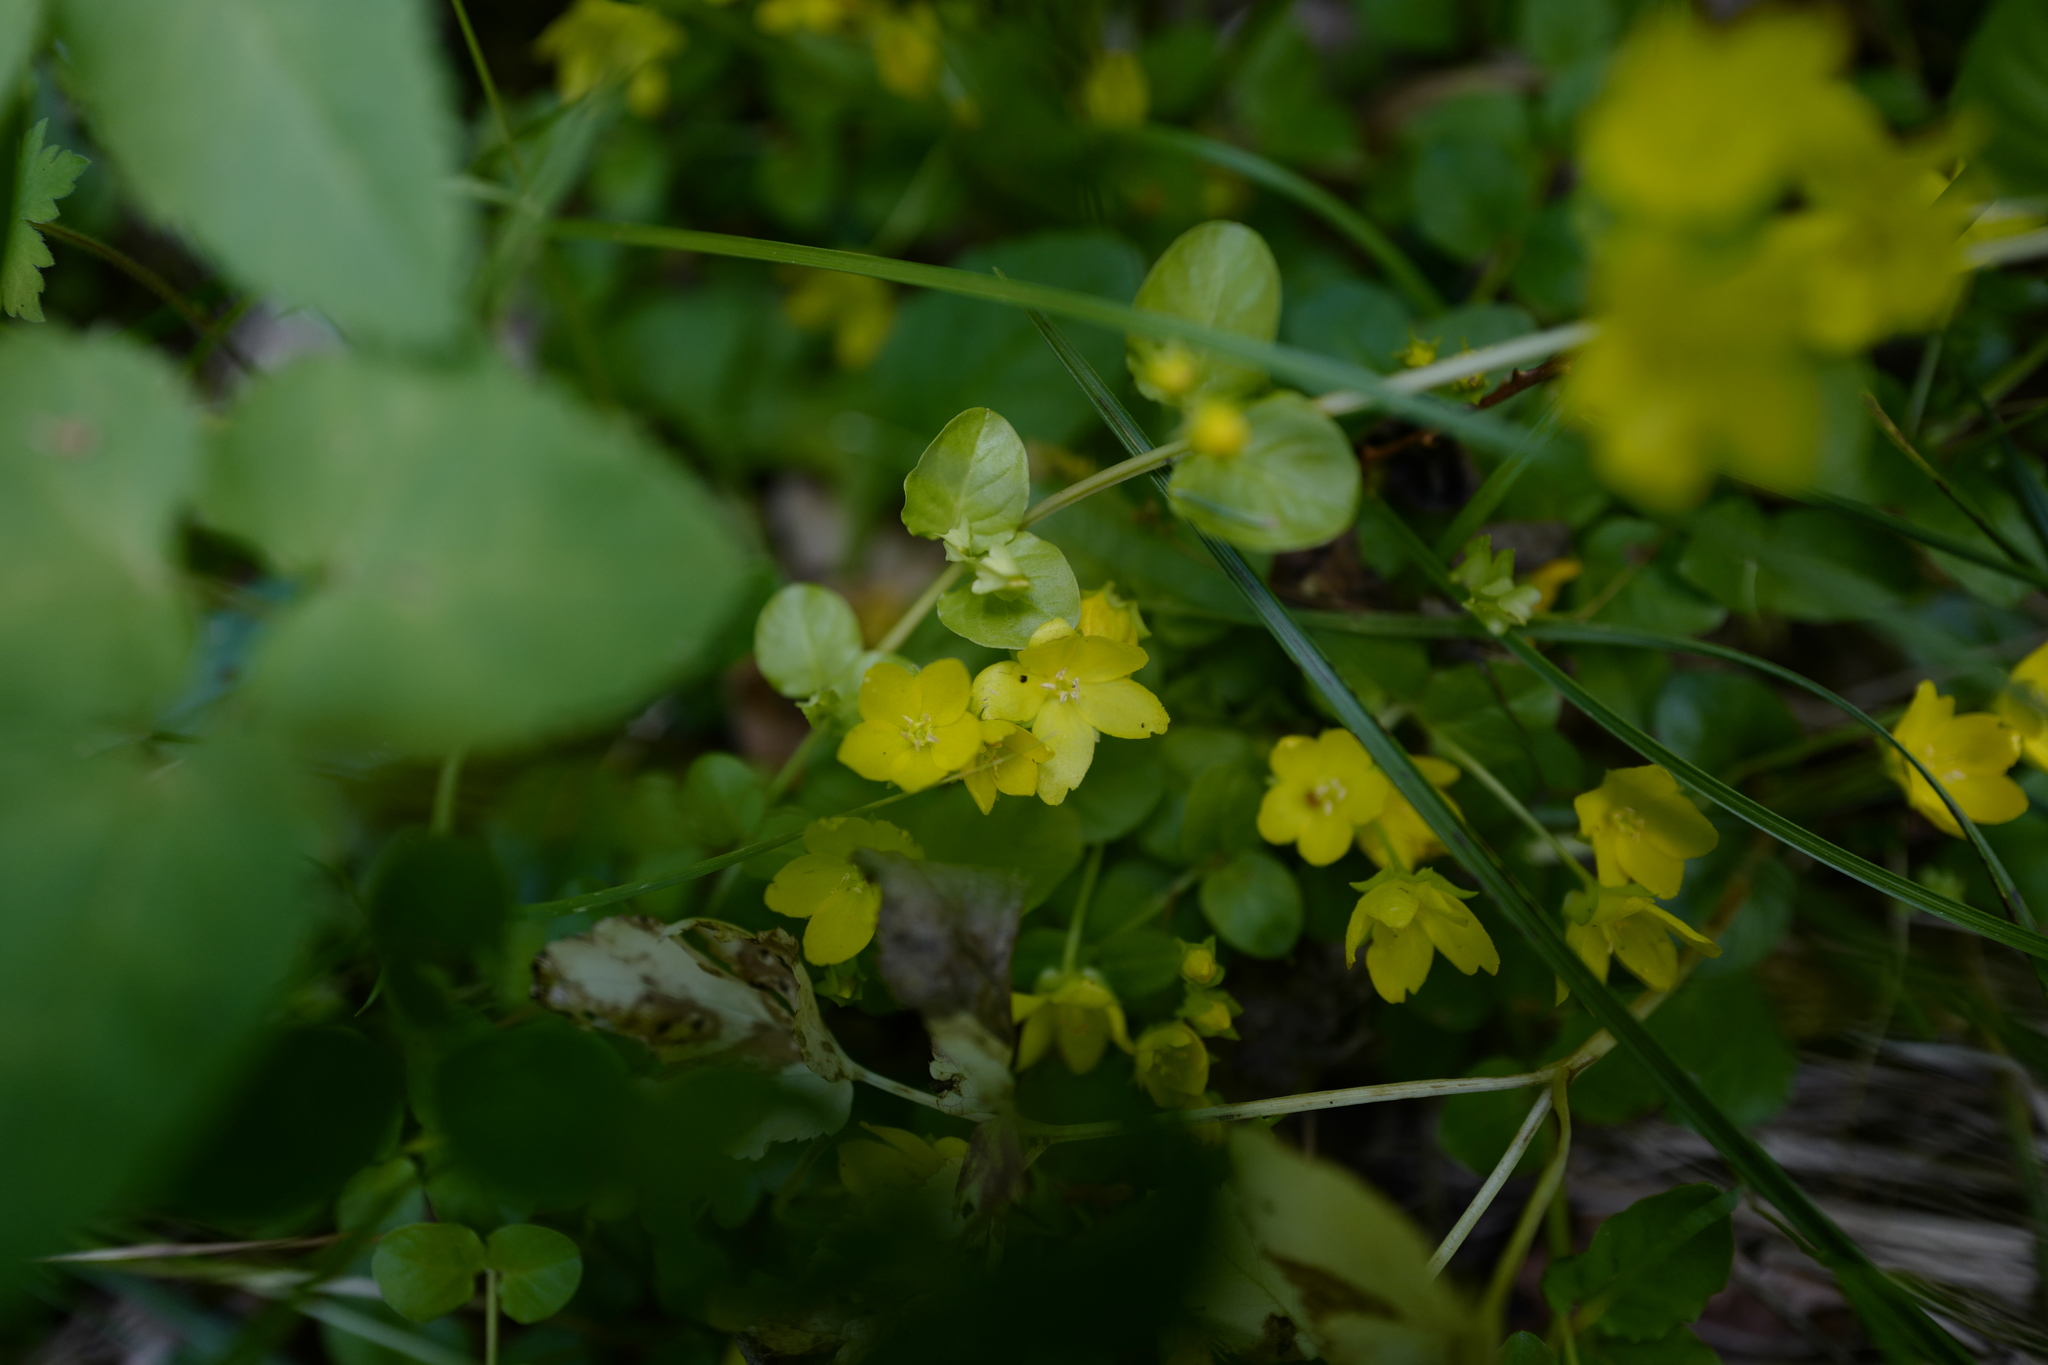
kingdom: Plantae
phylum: Tracheophyta
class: Magnoliopsida
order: Ericales
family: Primulaceae
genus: Lysimachia
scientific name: Lysimachia nummularia
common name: Moneywort
